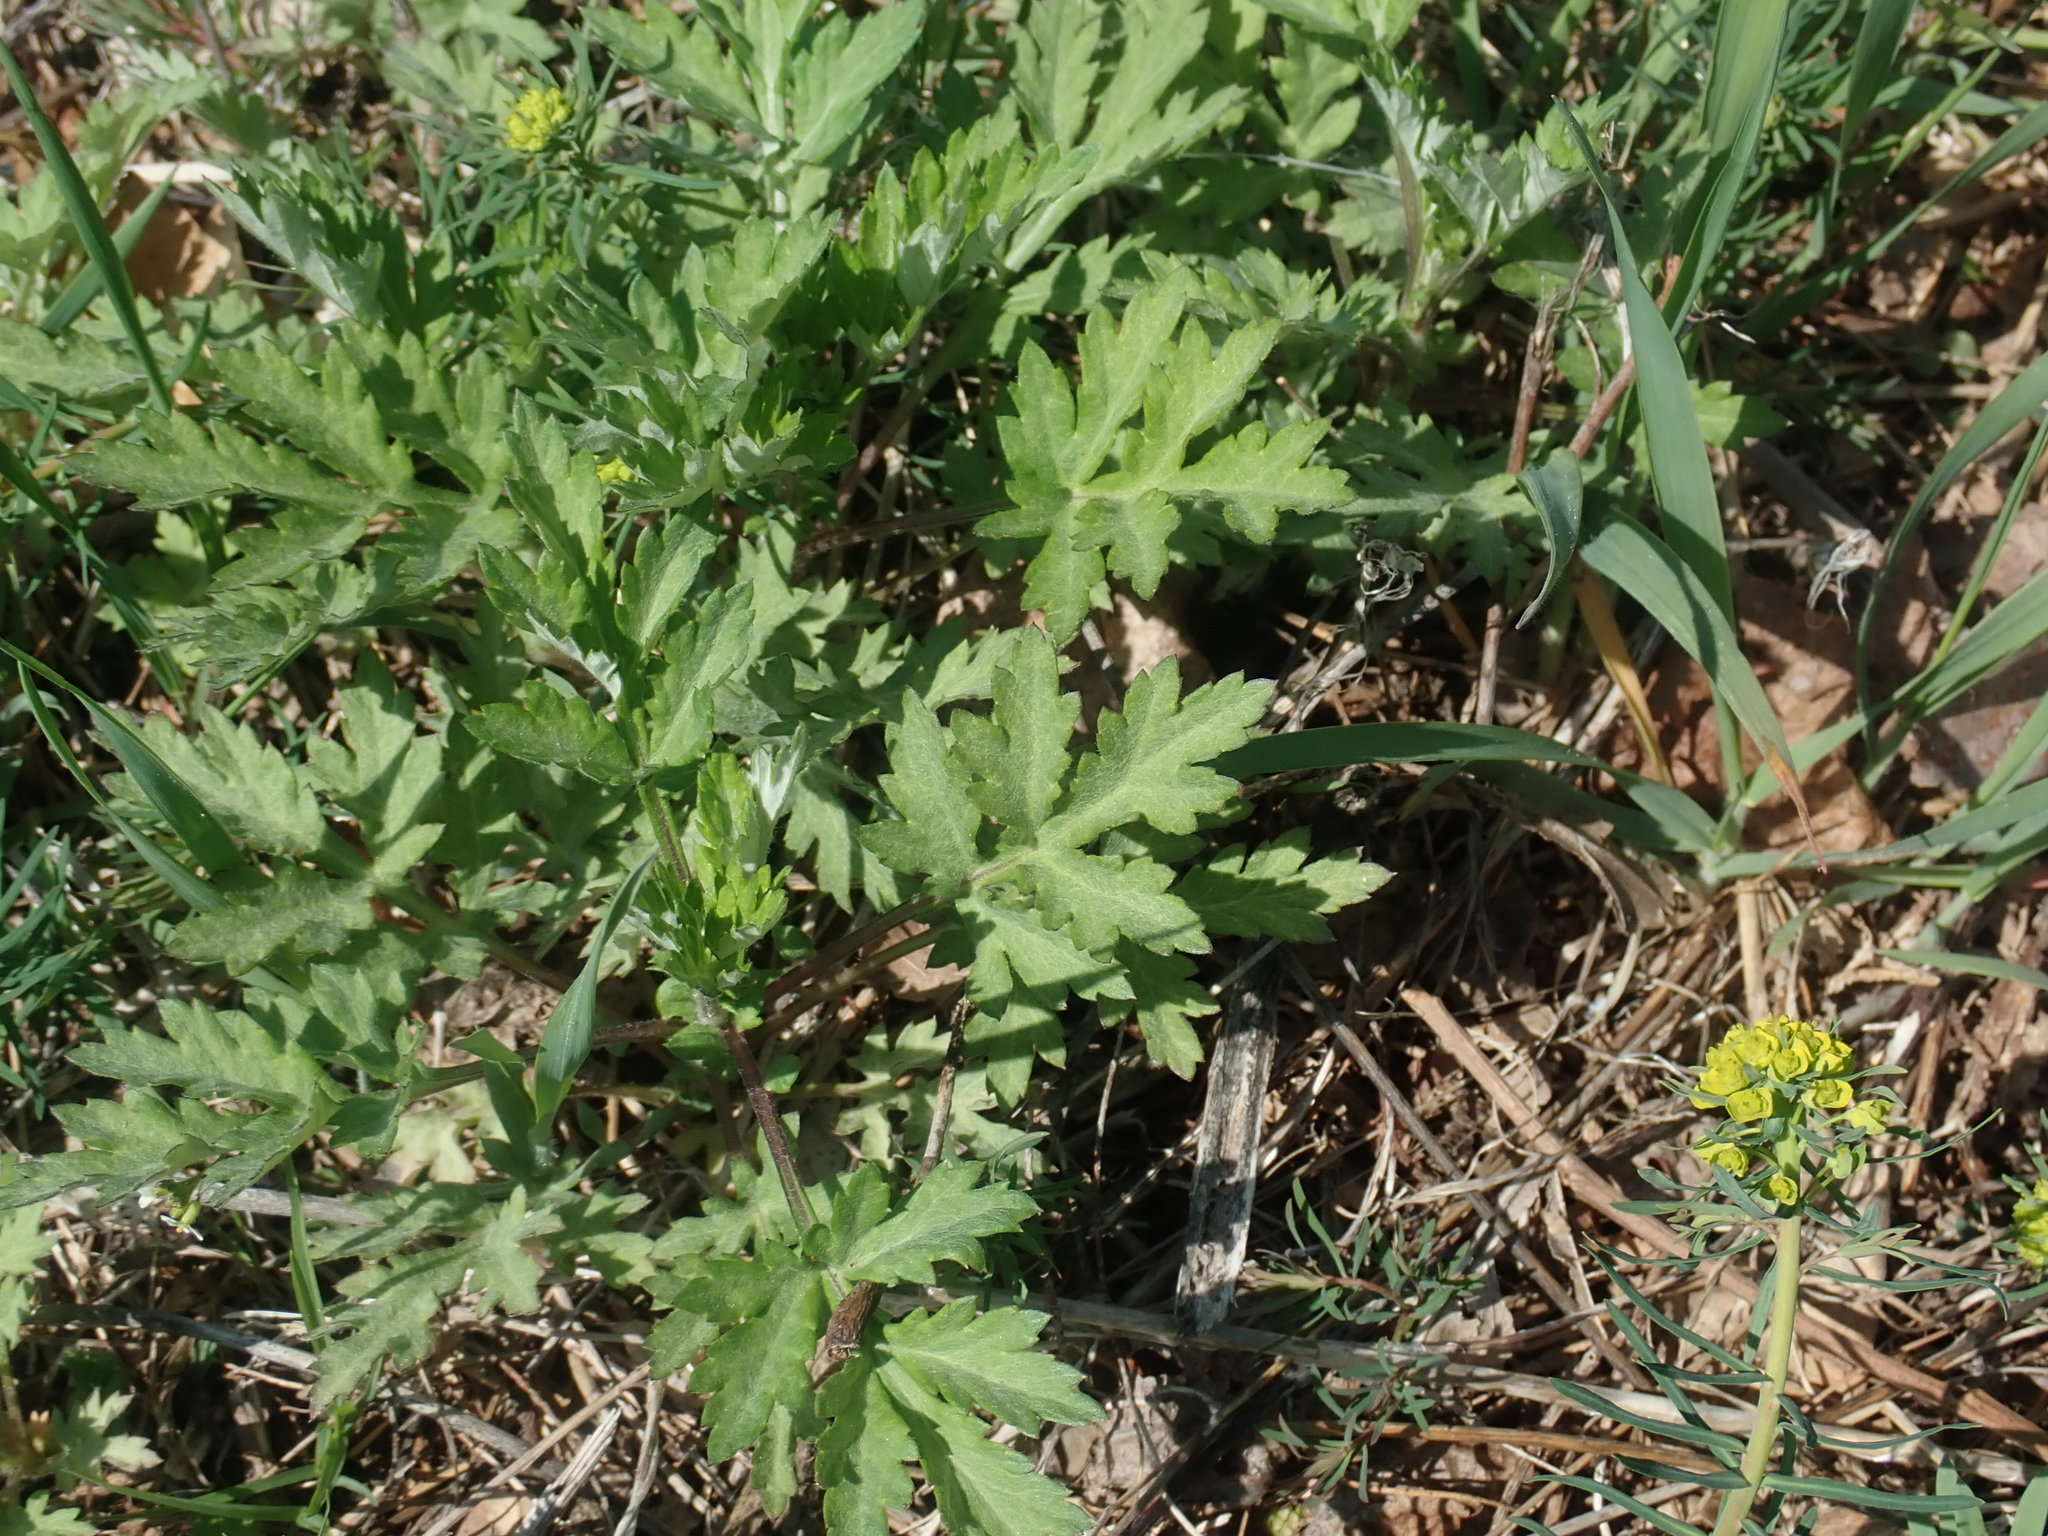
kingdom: Plantae
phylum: Tracheophyta
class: Magnoliopsida
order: Asterales
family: Asteraceae
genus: Artemisia
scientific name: Artemisia vulgaris
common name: Mugwort
